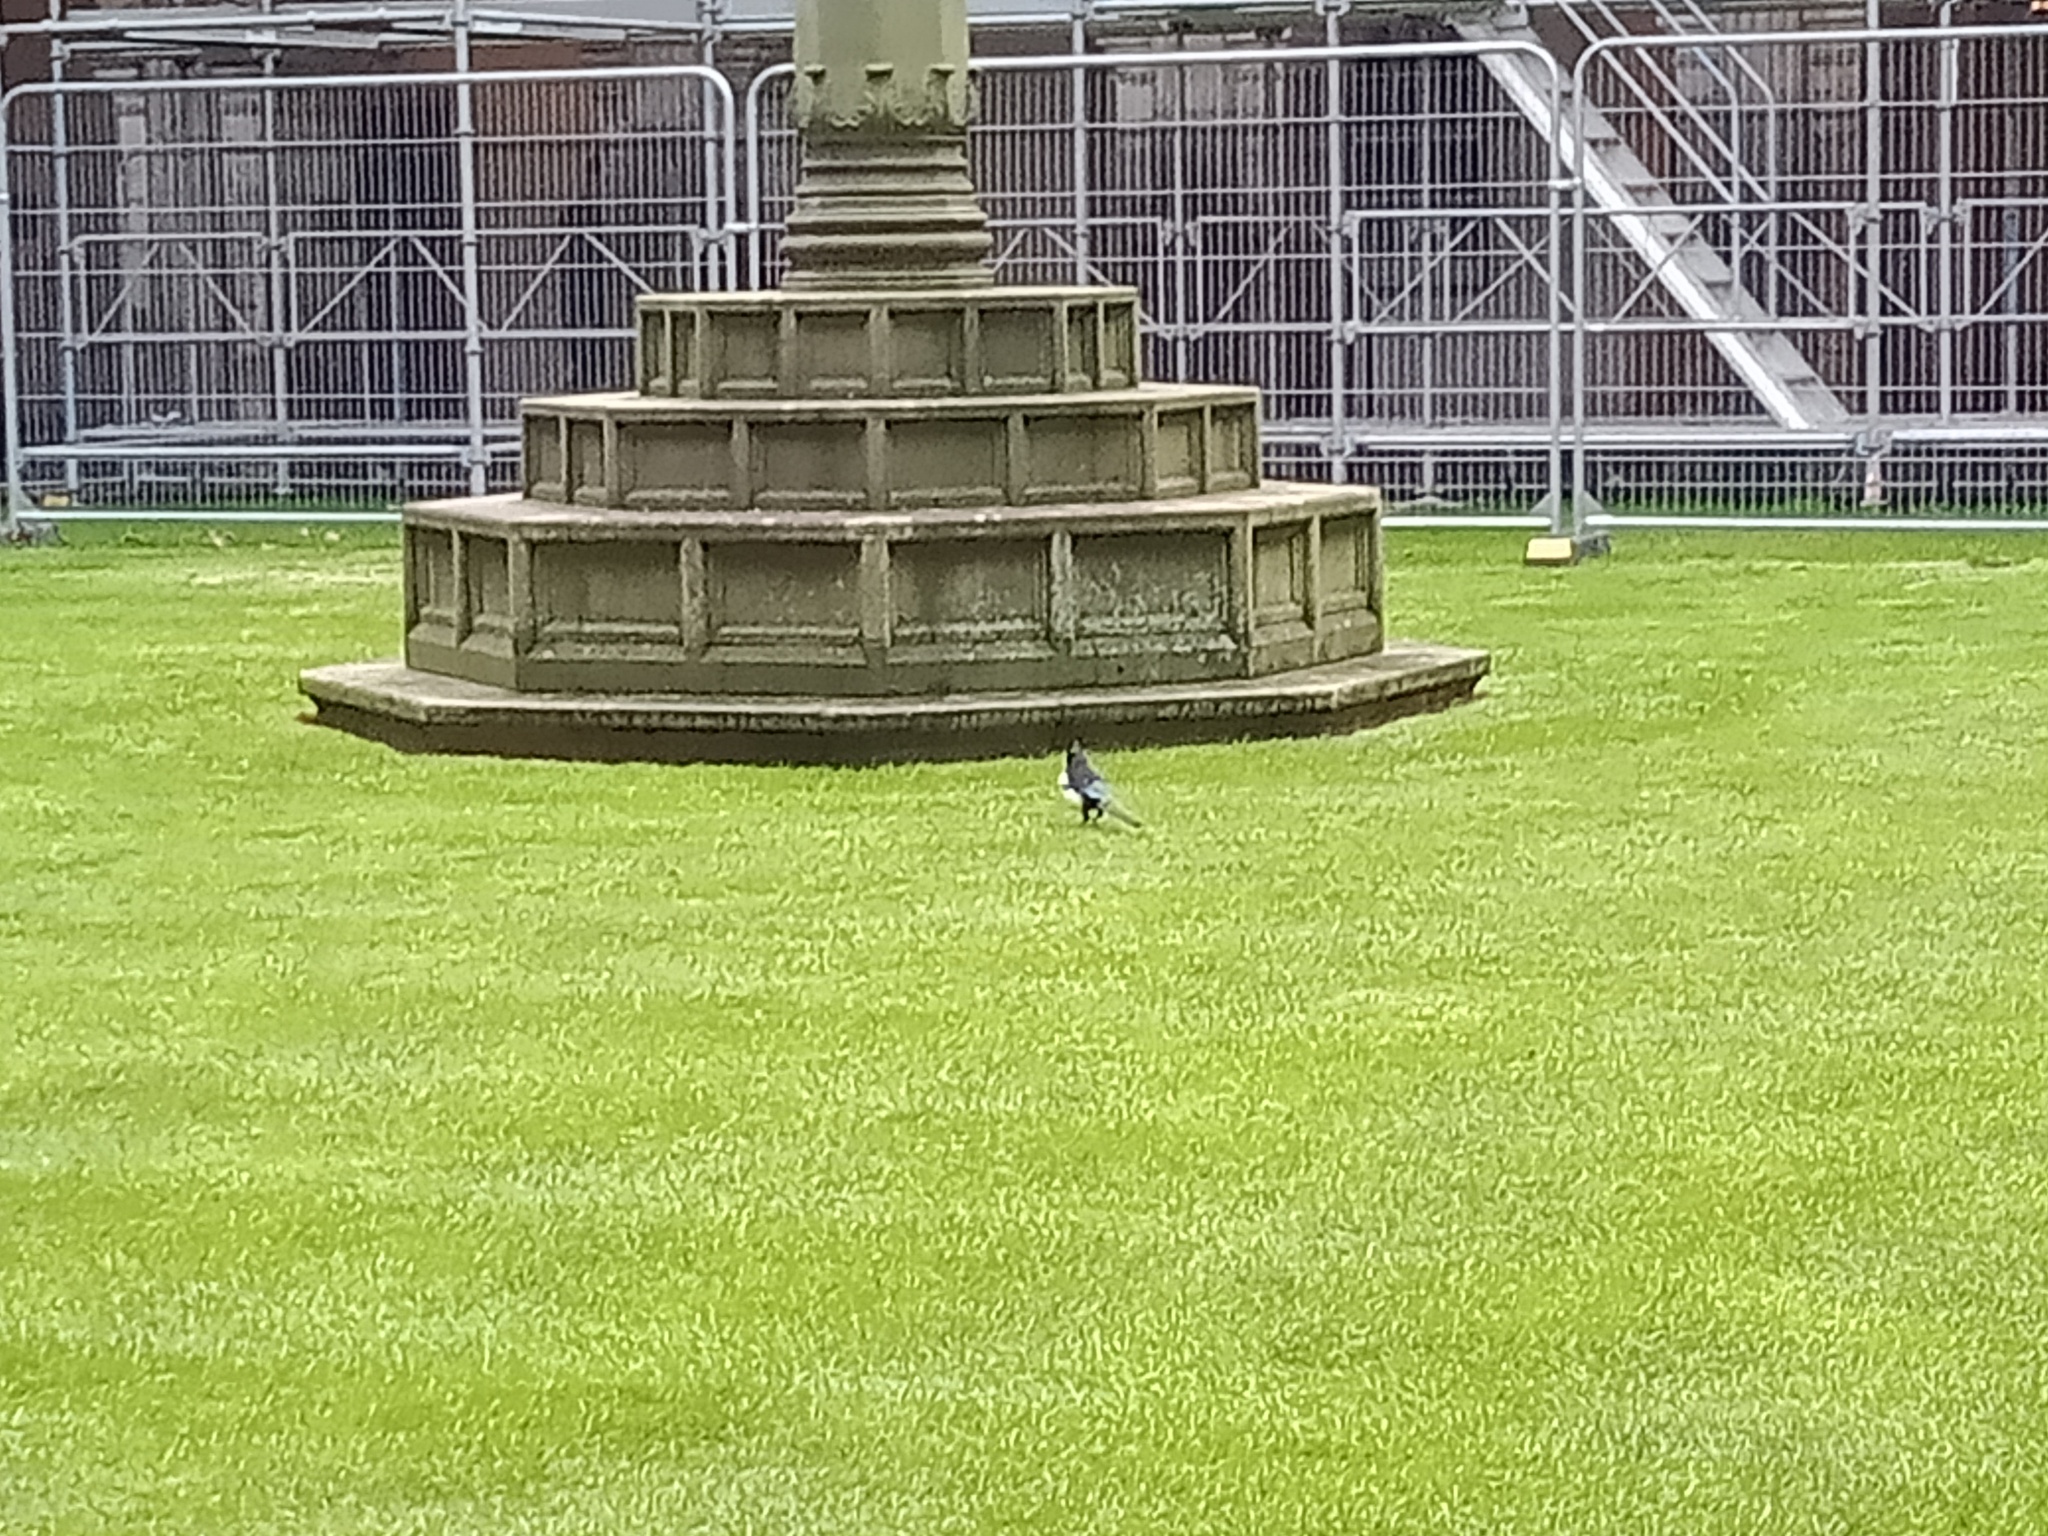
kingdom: Animalia
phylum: Chordata
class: Aves
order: Passeriformes
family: Corvidae
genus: Pica
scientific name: Pica pica
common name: Eurasian magpie
